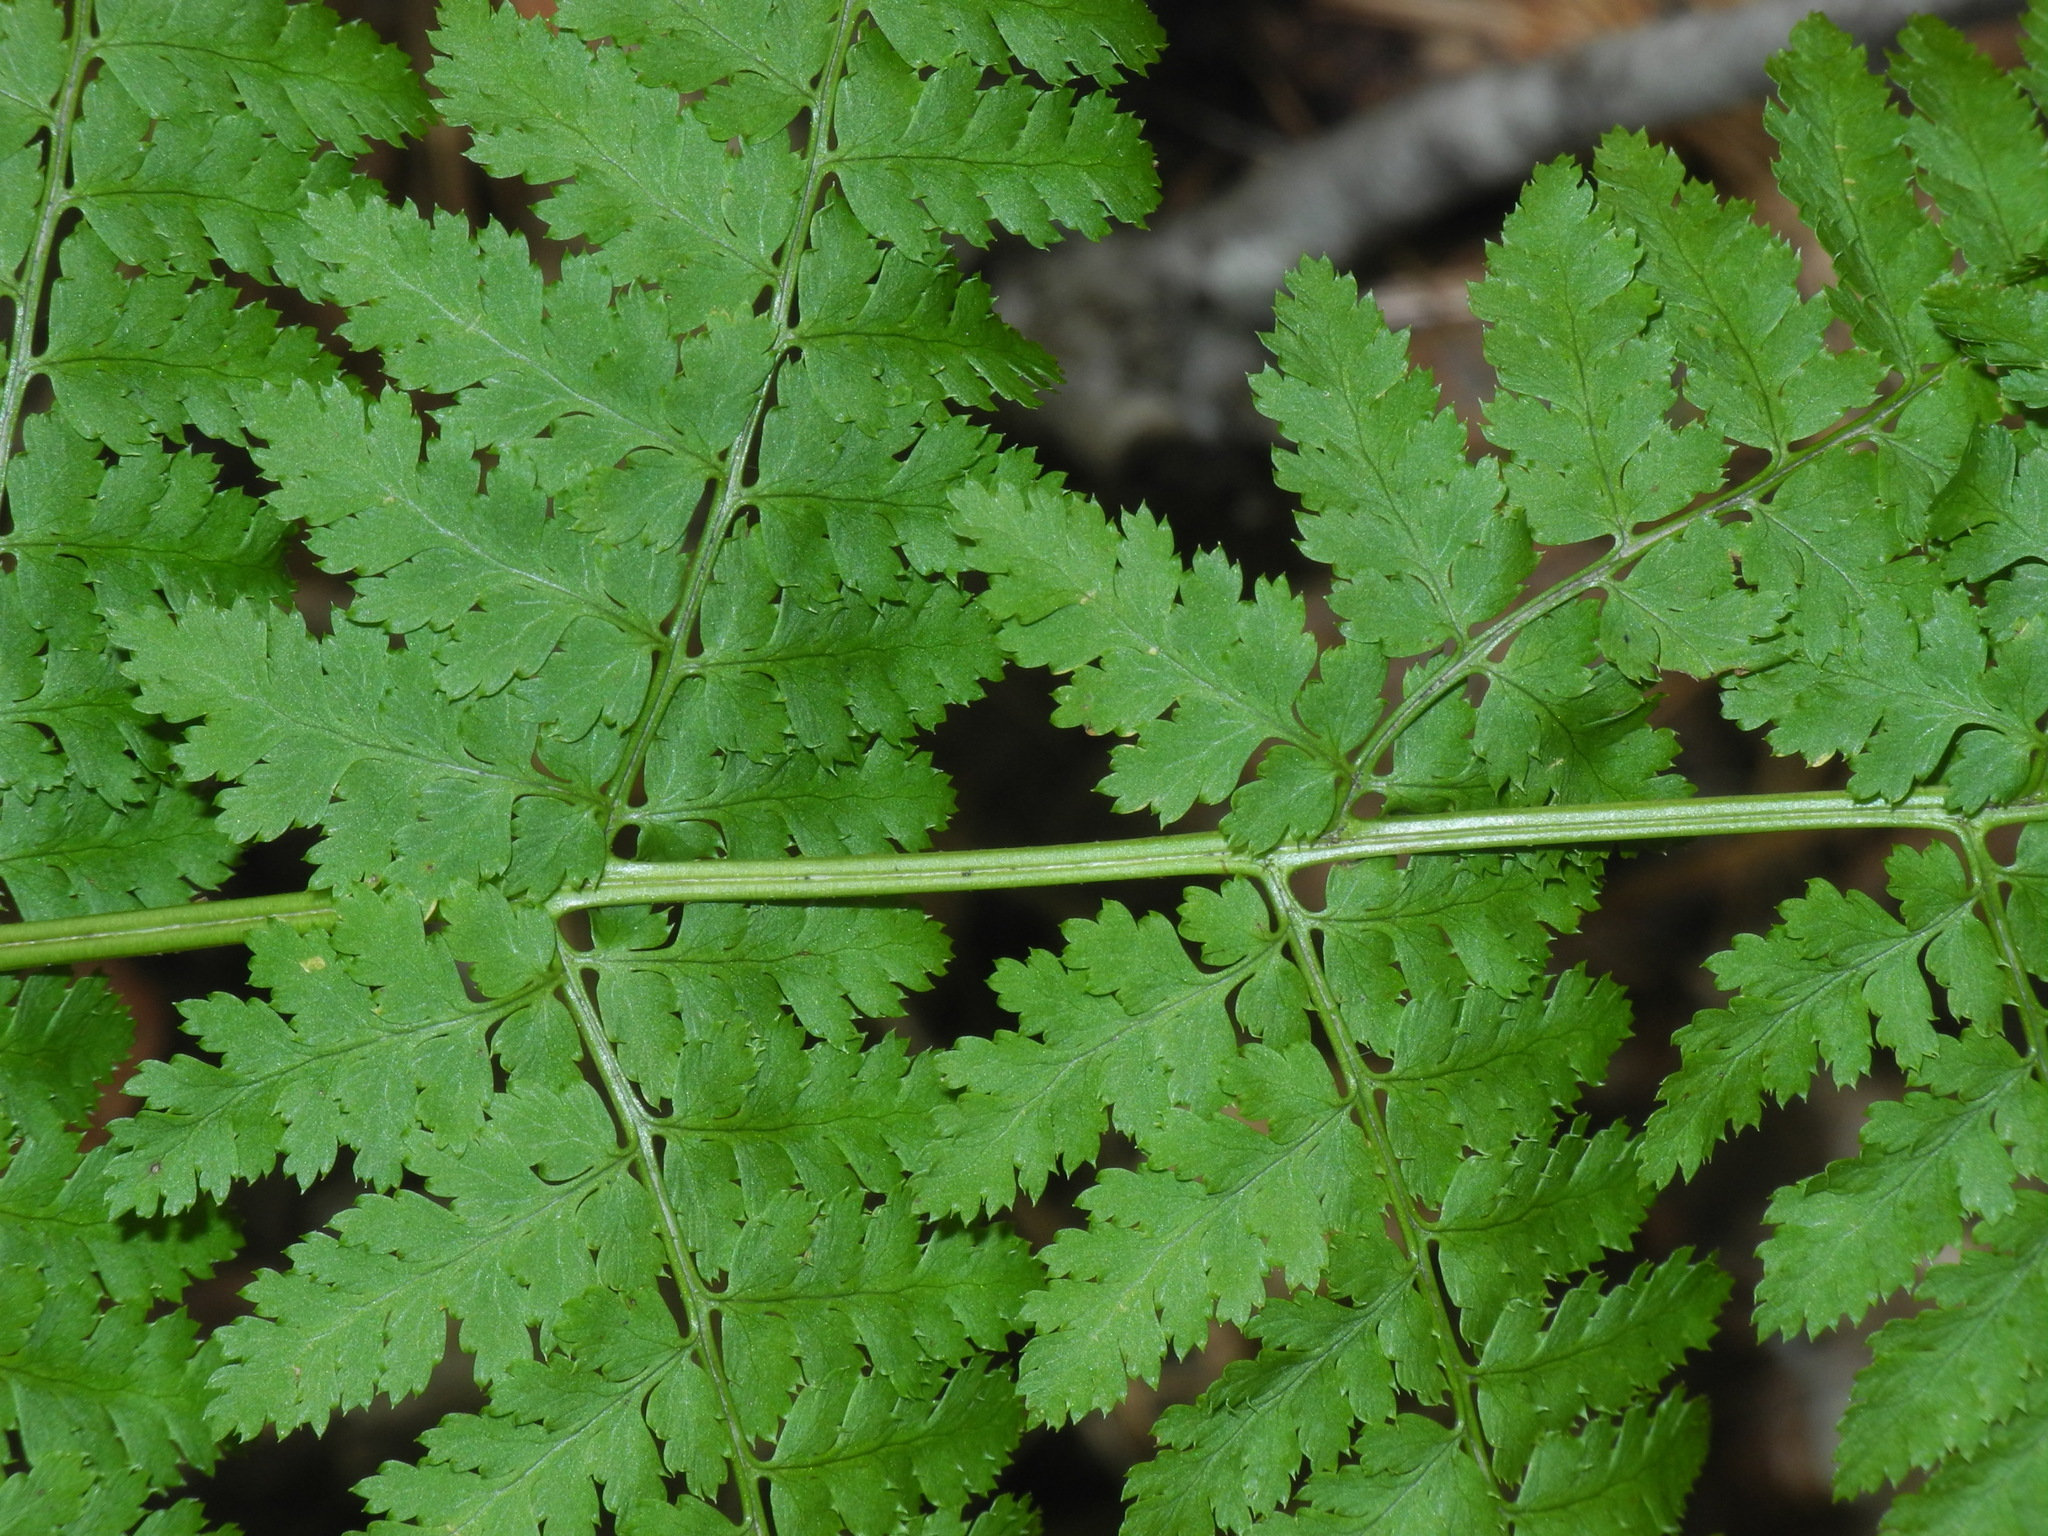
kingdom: Plantae
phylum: Tracheophyta
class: Polypodiopsida
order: Polypodiales
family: Dryopteridaceae
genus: Dryopteris
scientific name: Dryopteris intermedia
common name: Evergreen wood fern
